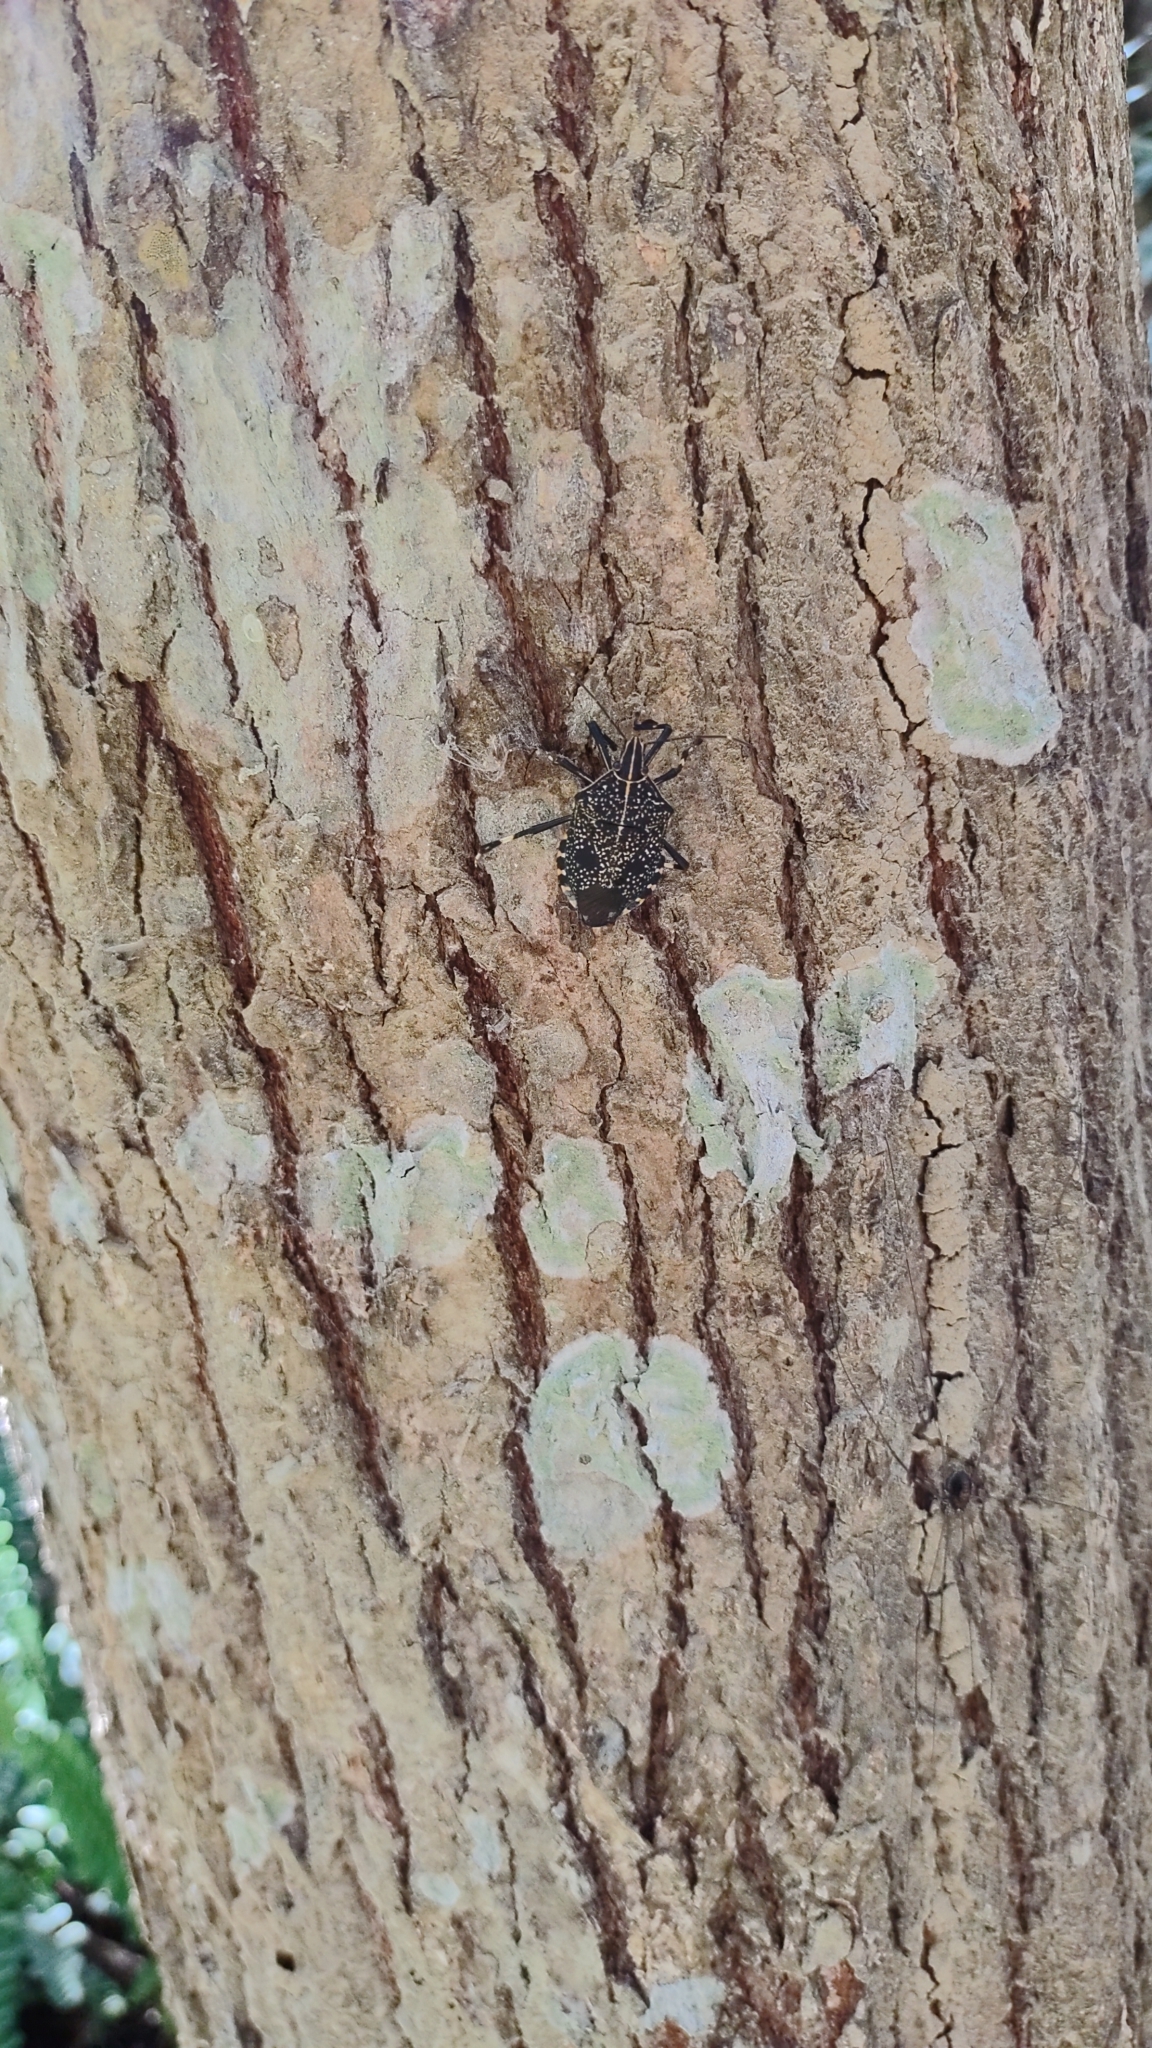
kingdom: Animalia
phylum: Arthropoda
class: Insecta
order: Hemiptera
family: Pentatomidae
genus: Erthesina
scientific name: Erthesina fullo
